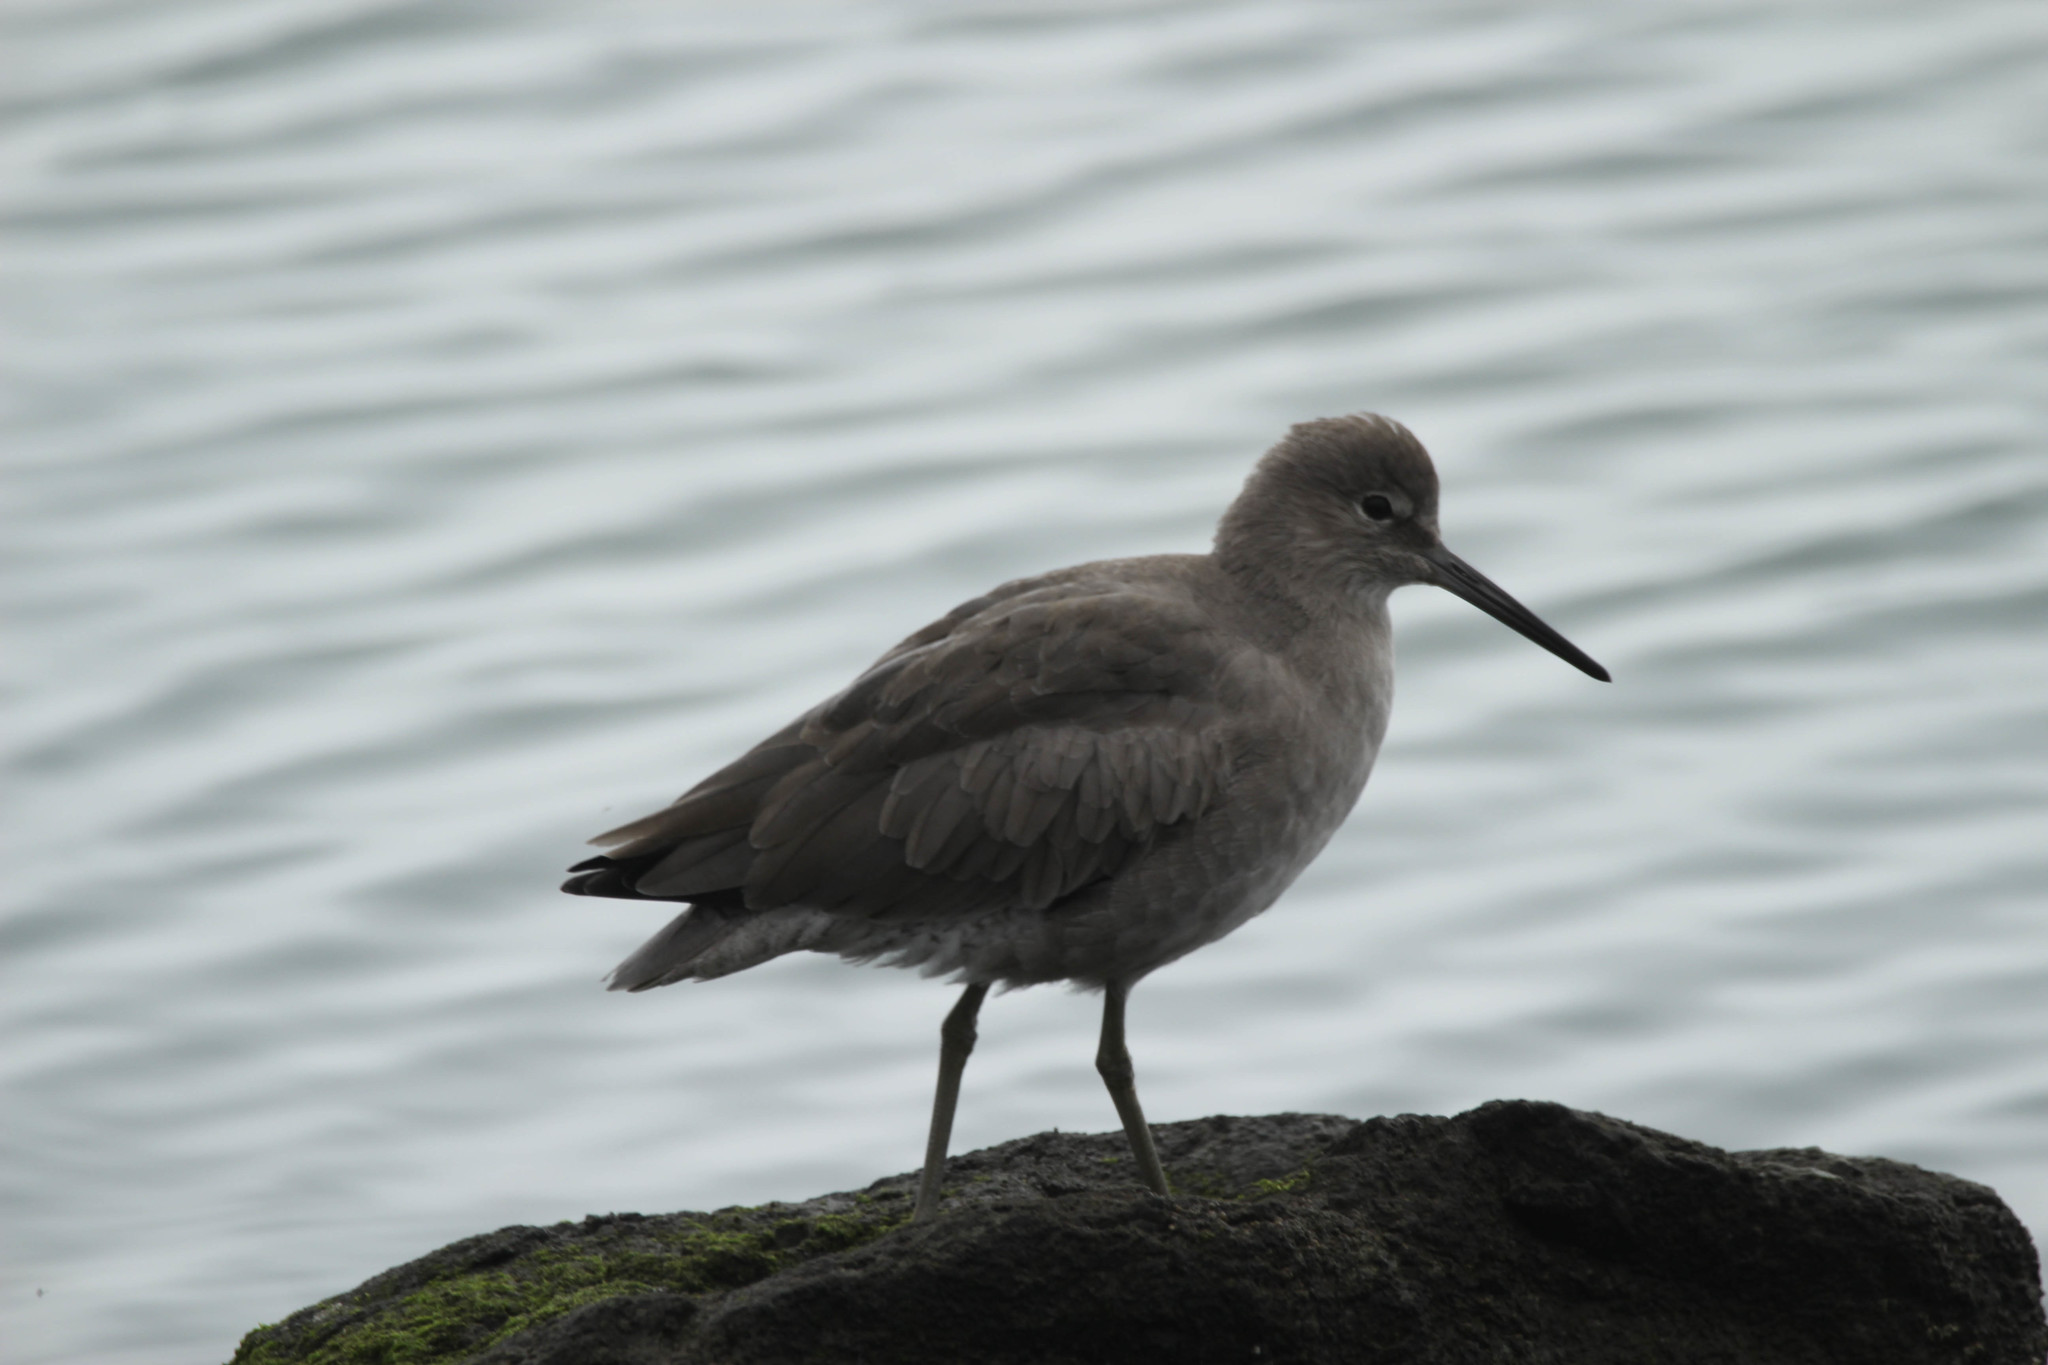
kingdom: Animalia
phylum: Chordata
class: Aves
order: Charadriiformes
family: Scolopacidae
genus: Tringa
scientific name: Tringa semipalmata
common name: Willet
